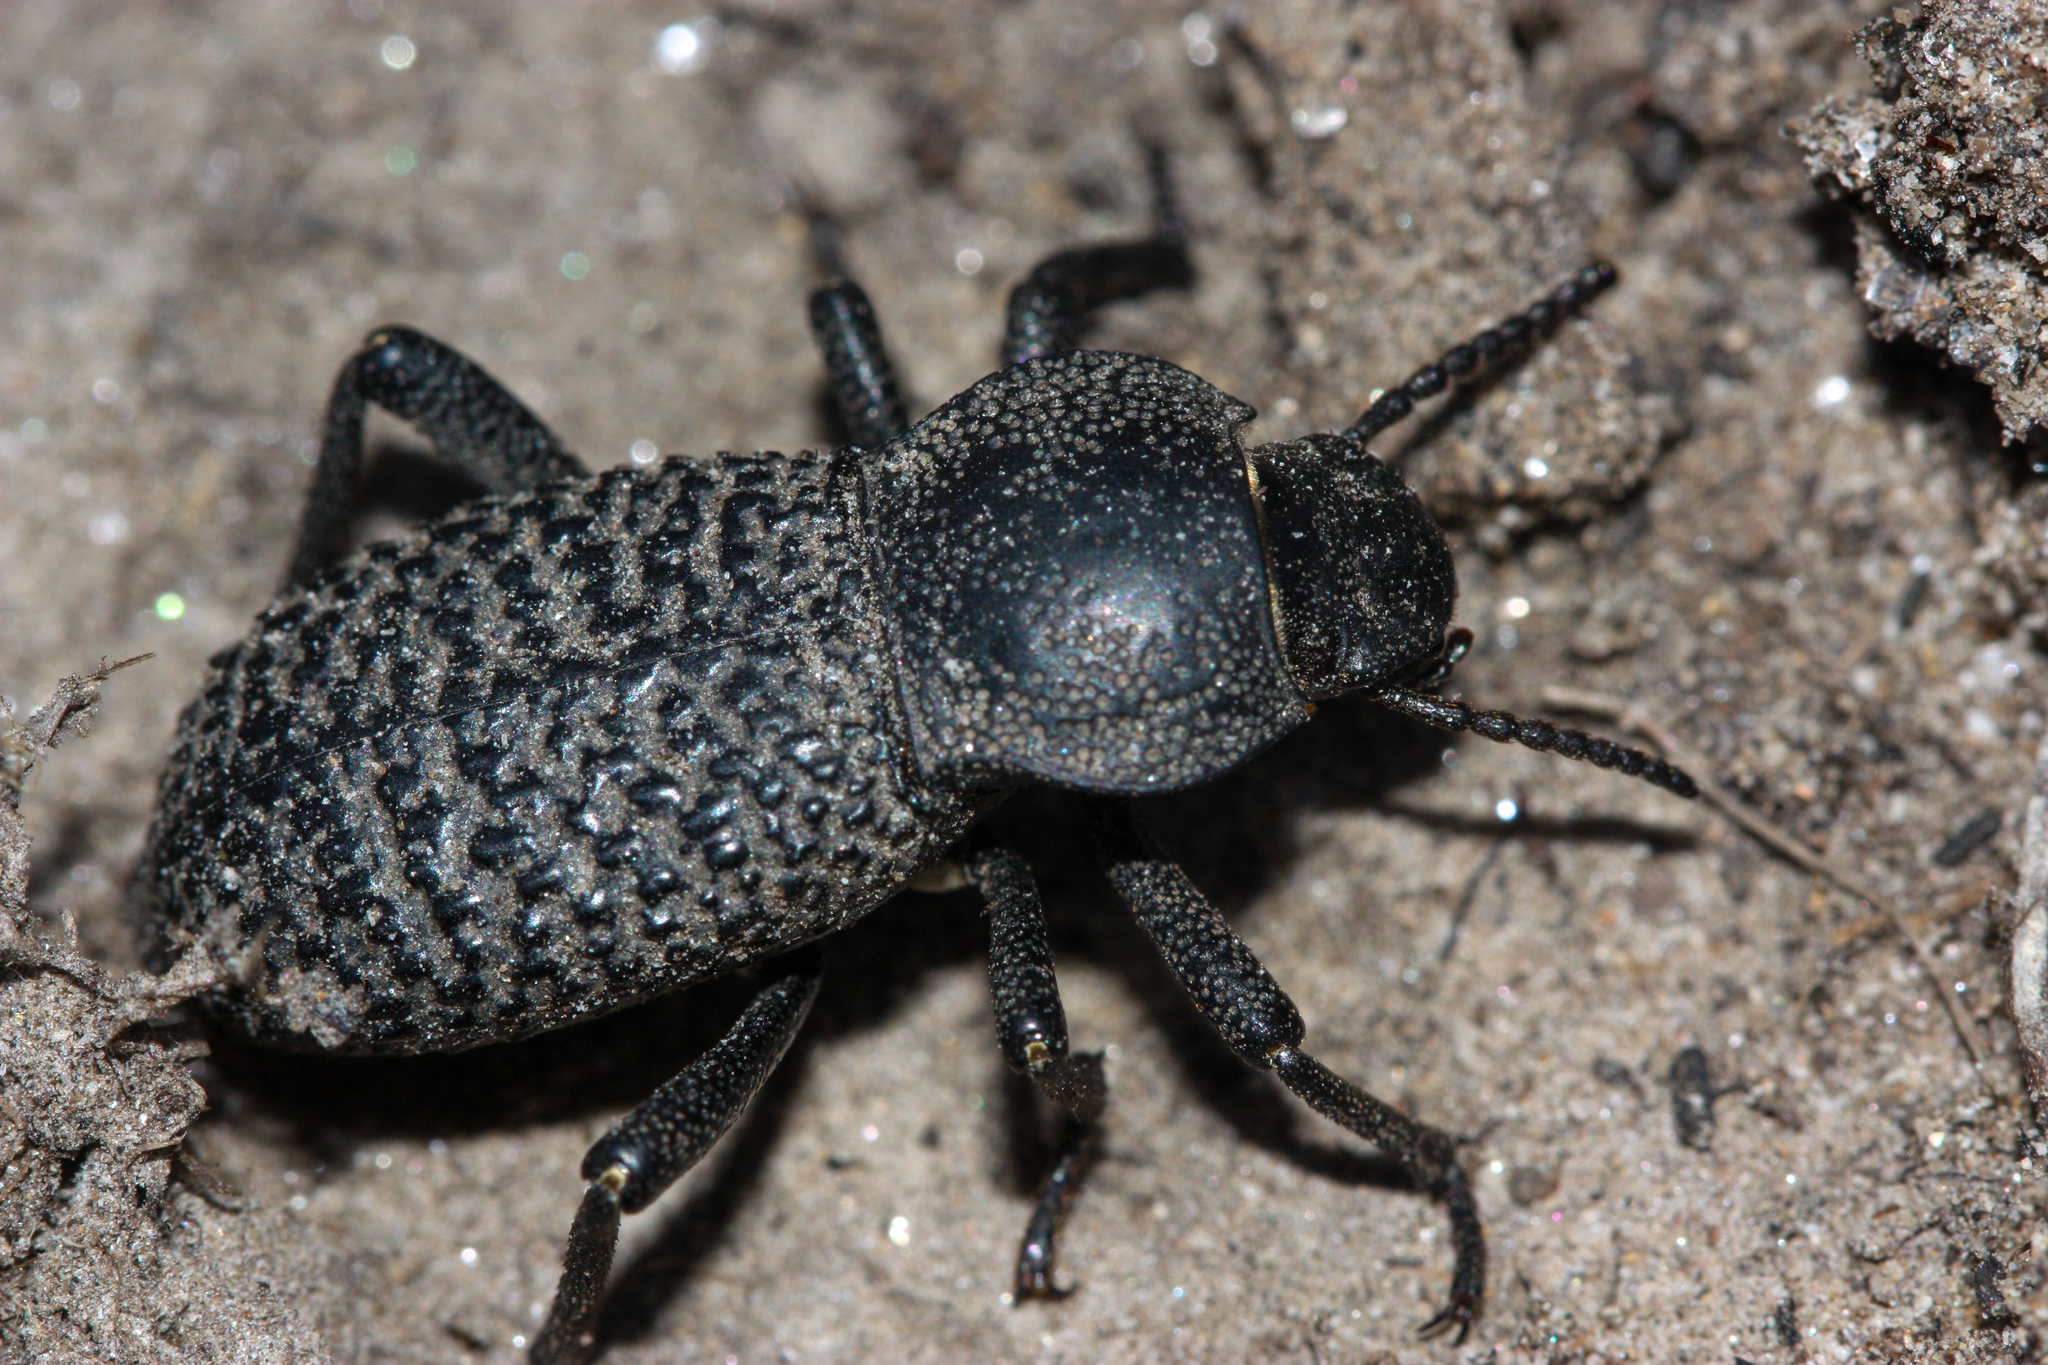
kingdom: Animalia
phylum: Arthropoda
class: Insecta
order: Coleoptera
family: Tenebrionidae
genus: Cryptoglossa
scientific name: Cryptoglossa variolosa
